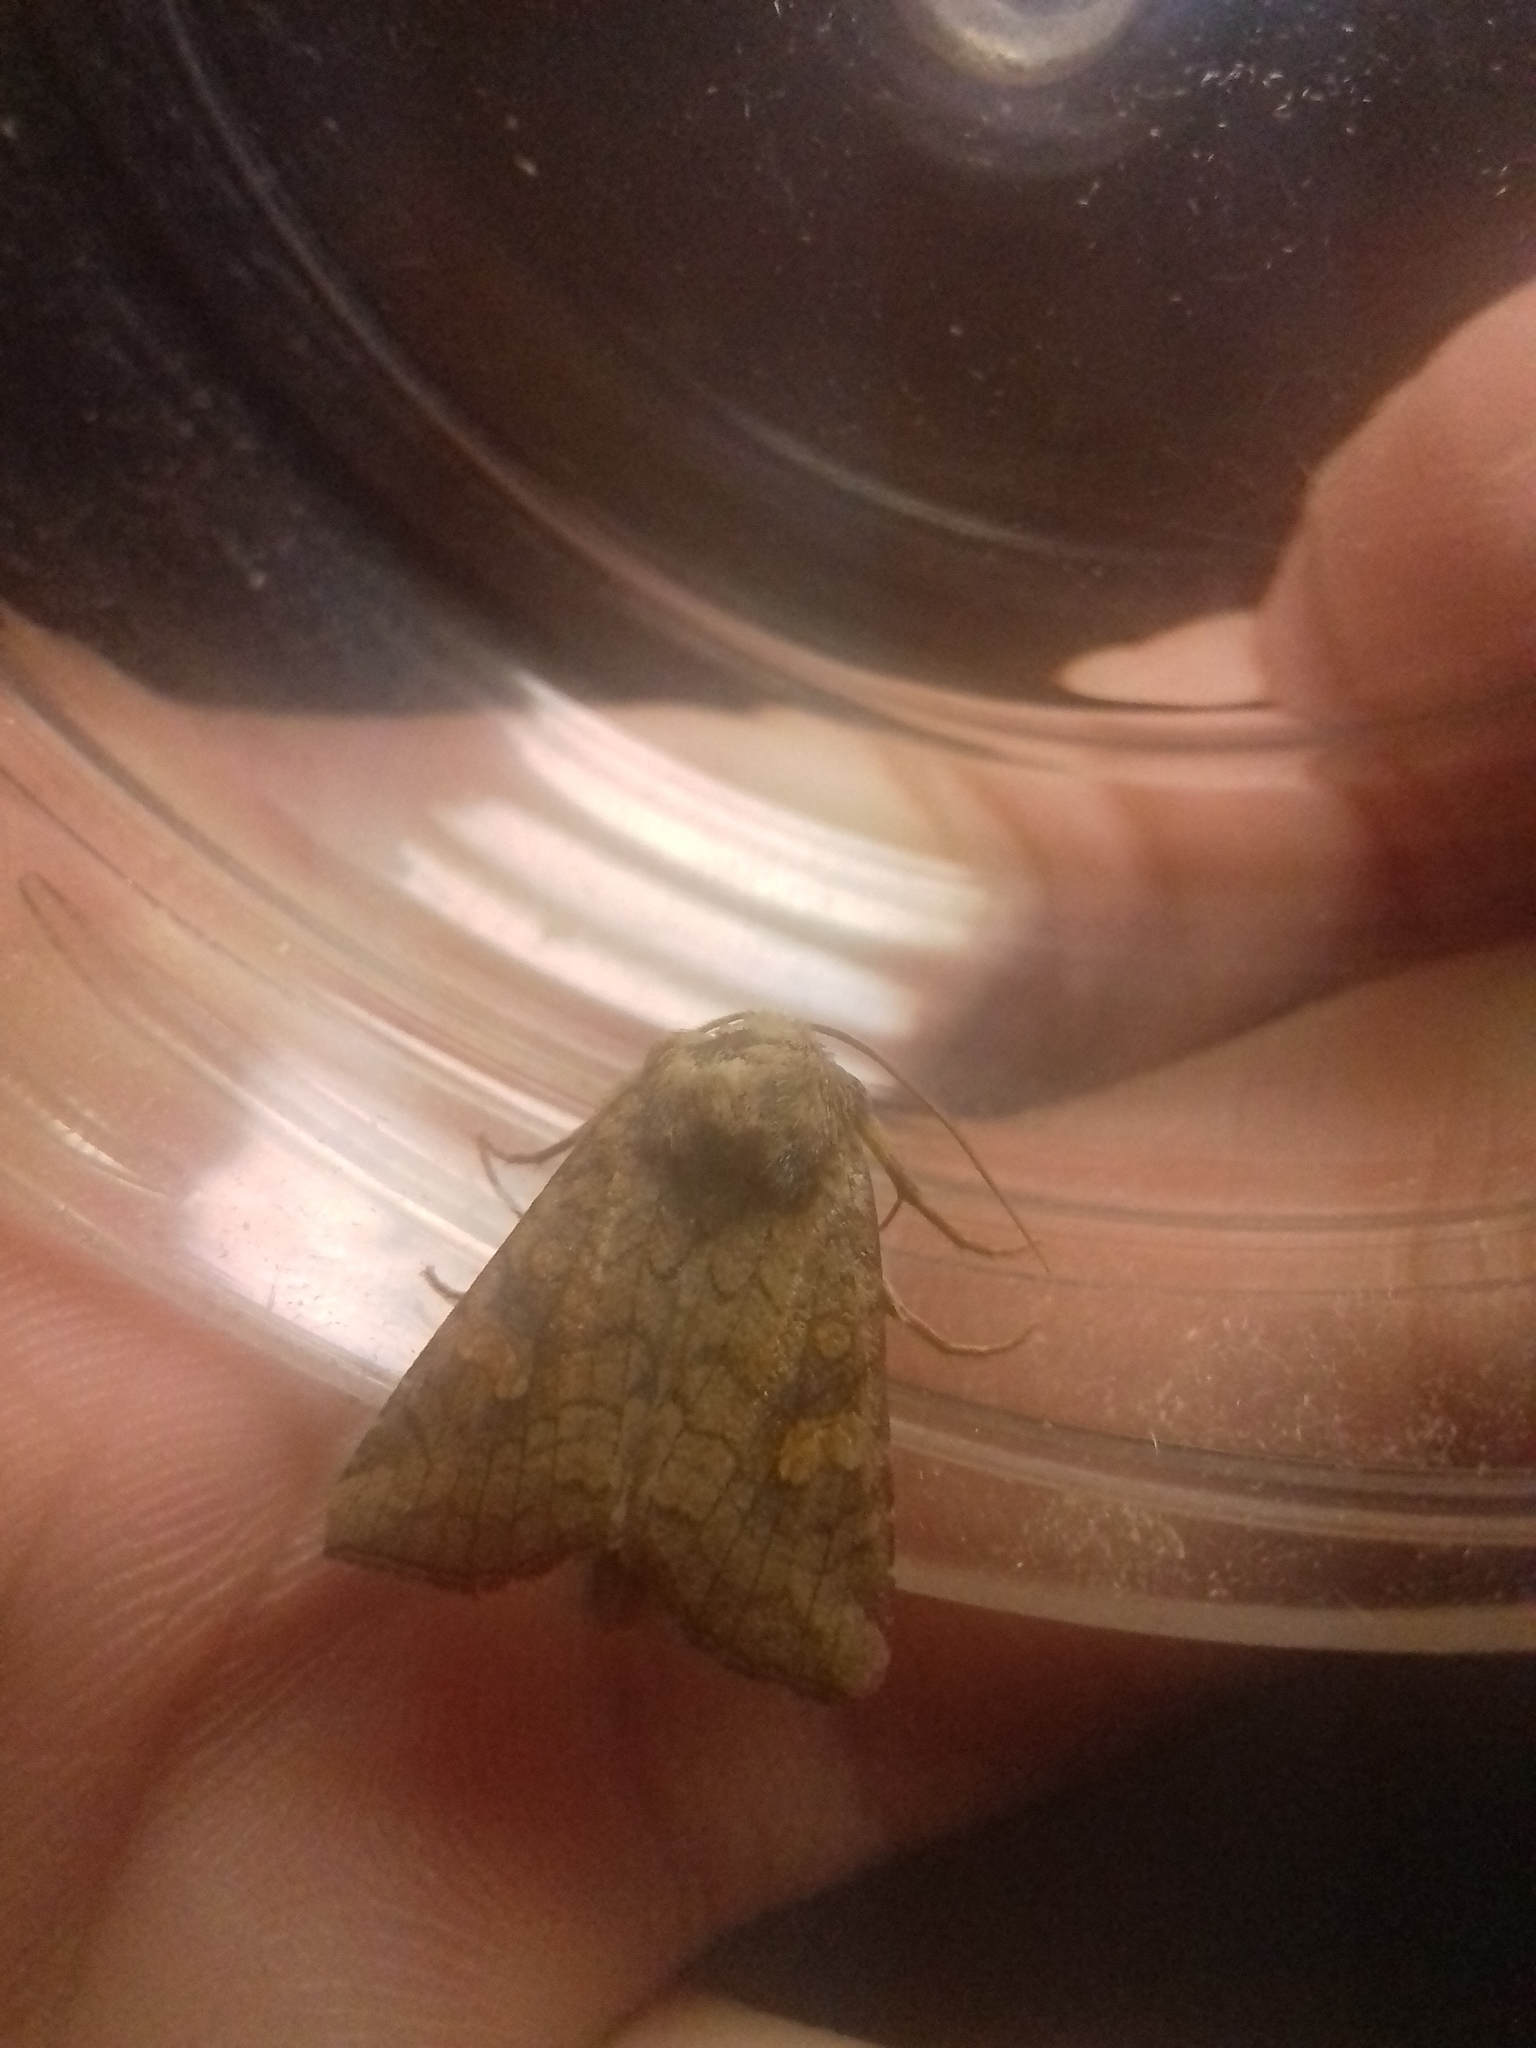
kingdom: Animalia
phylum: Arthropoda
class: Insecta
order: Lepidoptera
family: Noctuidae
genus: Amphipoea
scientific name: Amphipoea fucosa
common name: Saltern ear
